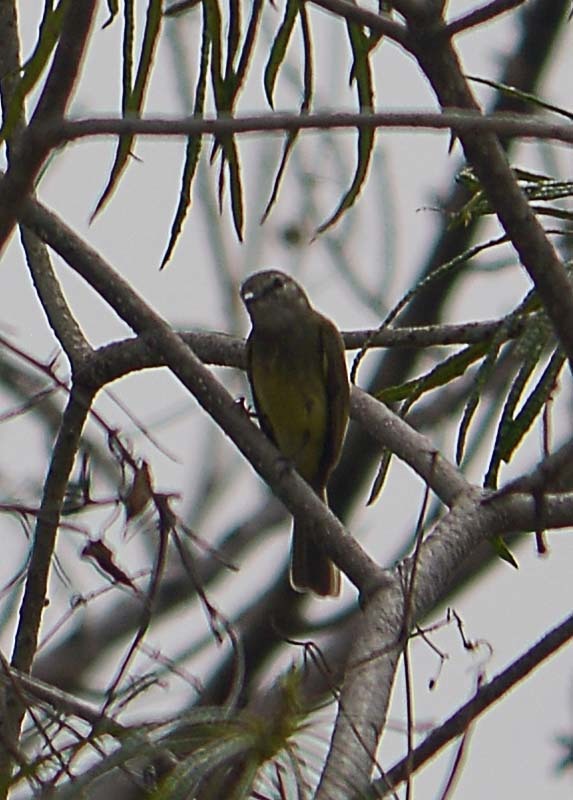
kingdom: Animalia
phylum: Chordata
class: Aves
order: Passeriformes
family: Tyrannidae
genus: Myiopagis
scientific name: Myiopagis viridicata
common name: Greenish elaenia
